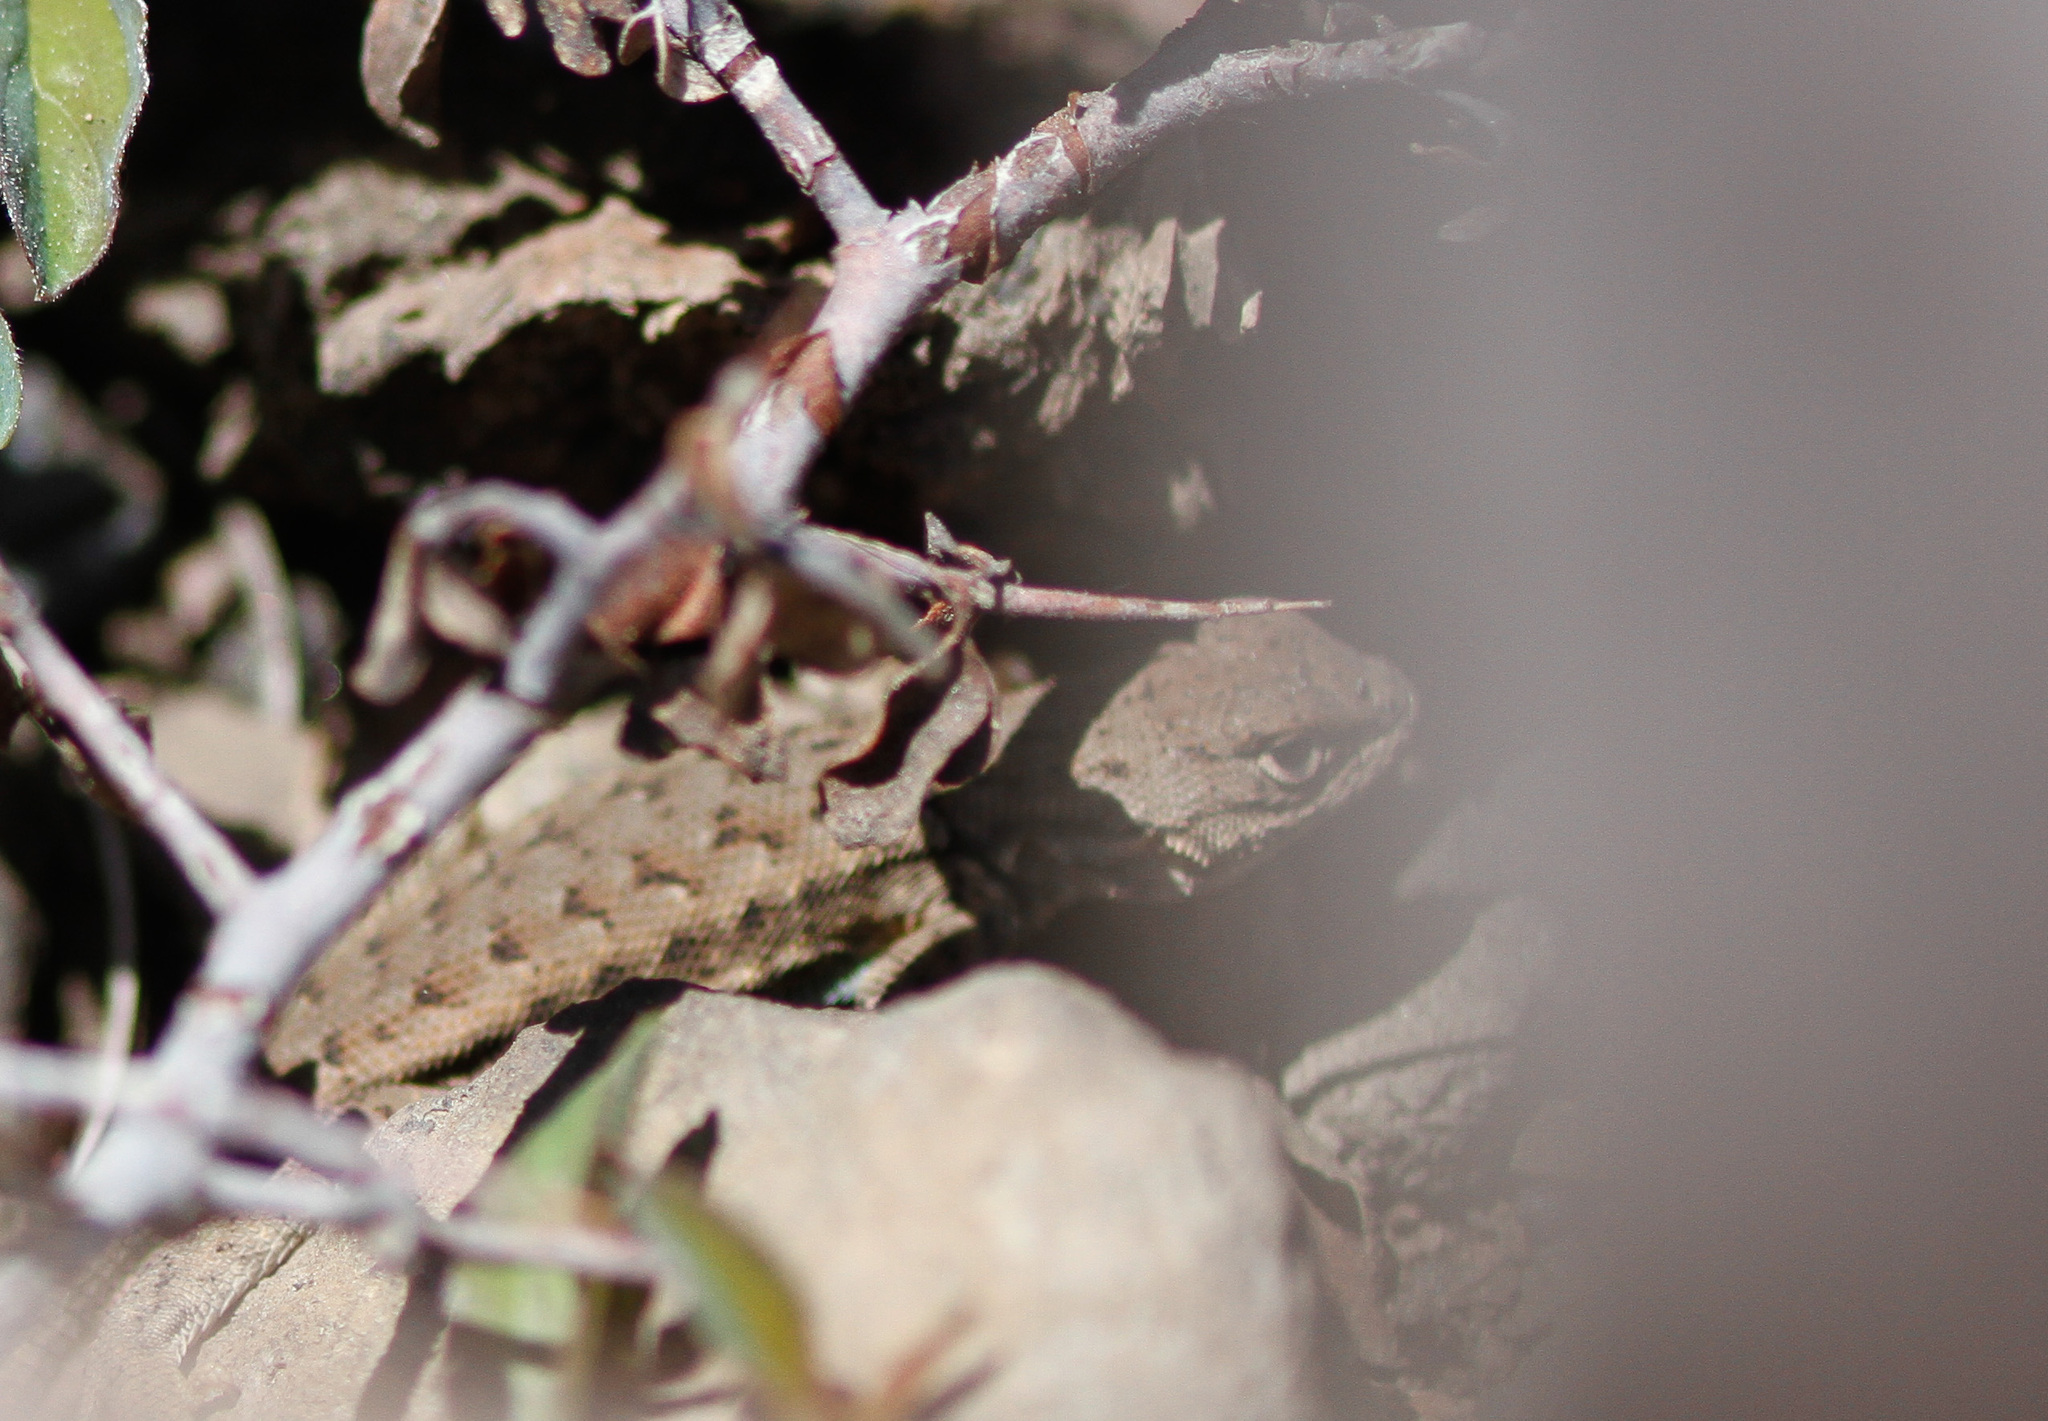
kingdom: Animalia
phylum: Chordata
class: Squamata
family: Phrynosomatidae
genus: Sceloporus
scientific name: Sceloporus graciosus
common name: Sagebrush lizard
